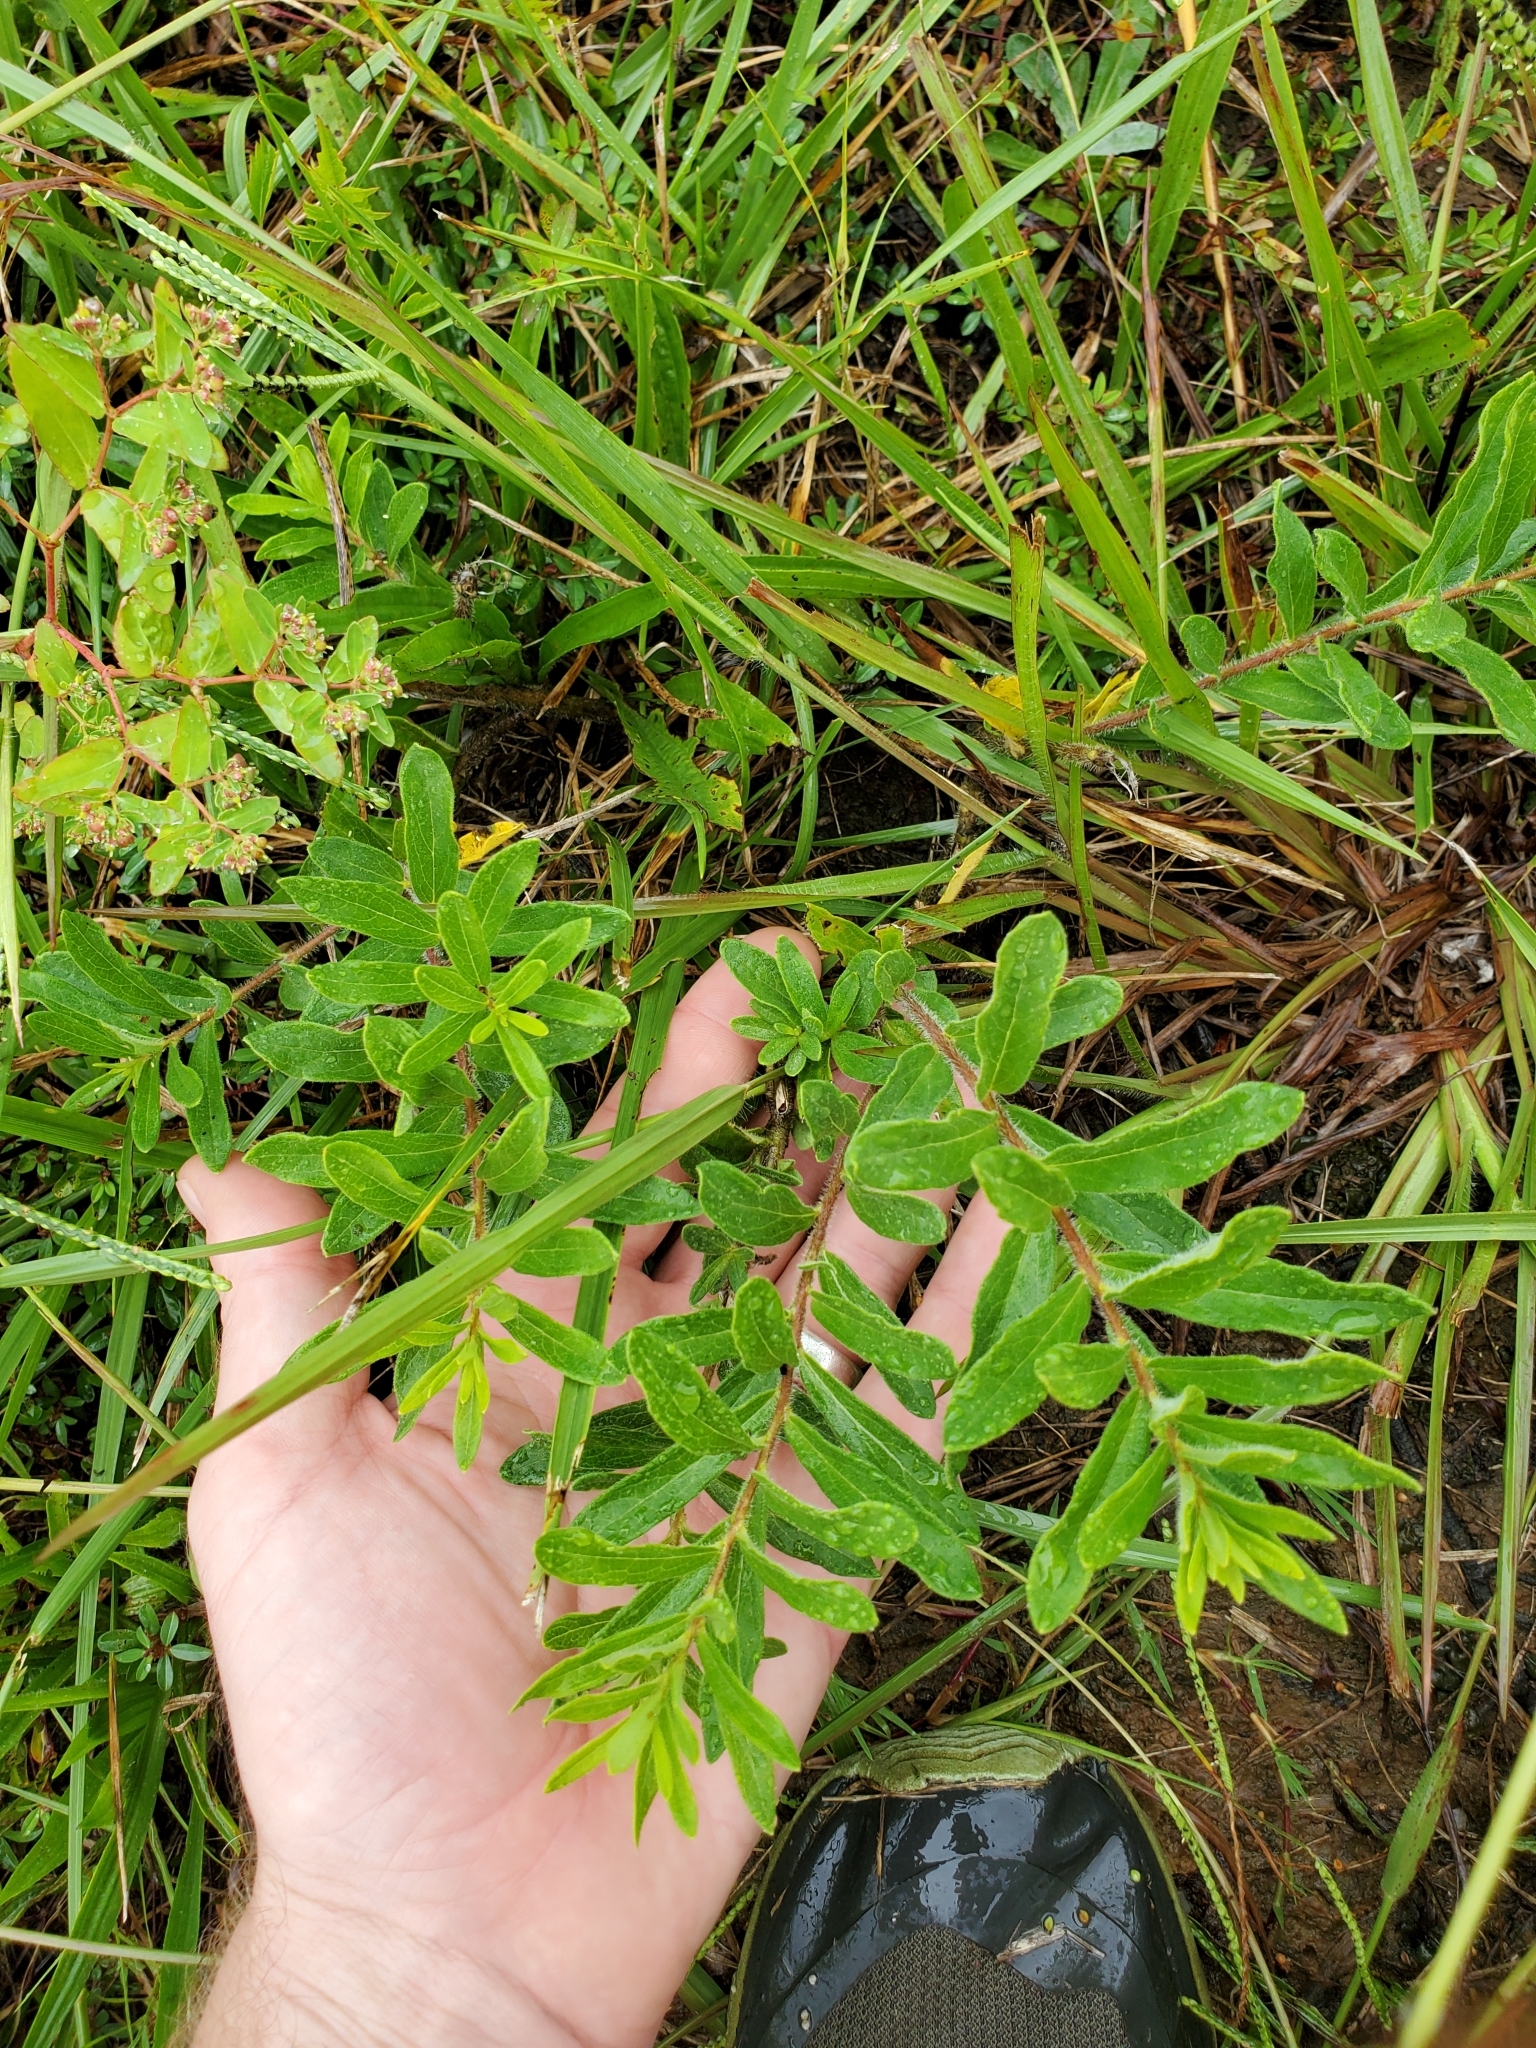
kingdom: Plantae
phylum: Tracheophyta
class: Magnoliopsida
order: Gentianales
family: Apocynaceae
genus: Asclepias
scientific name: Asclepias tuberosa
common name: Butterfly milkweed
